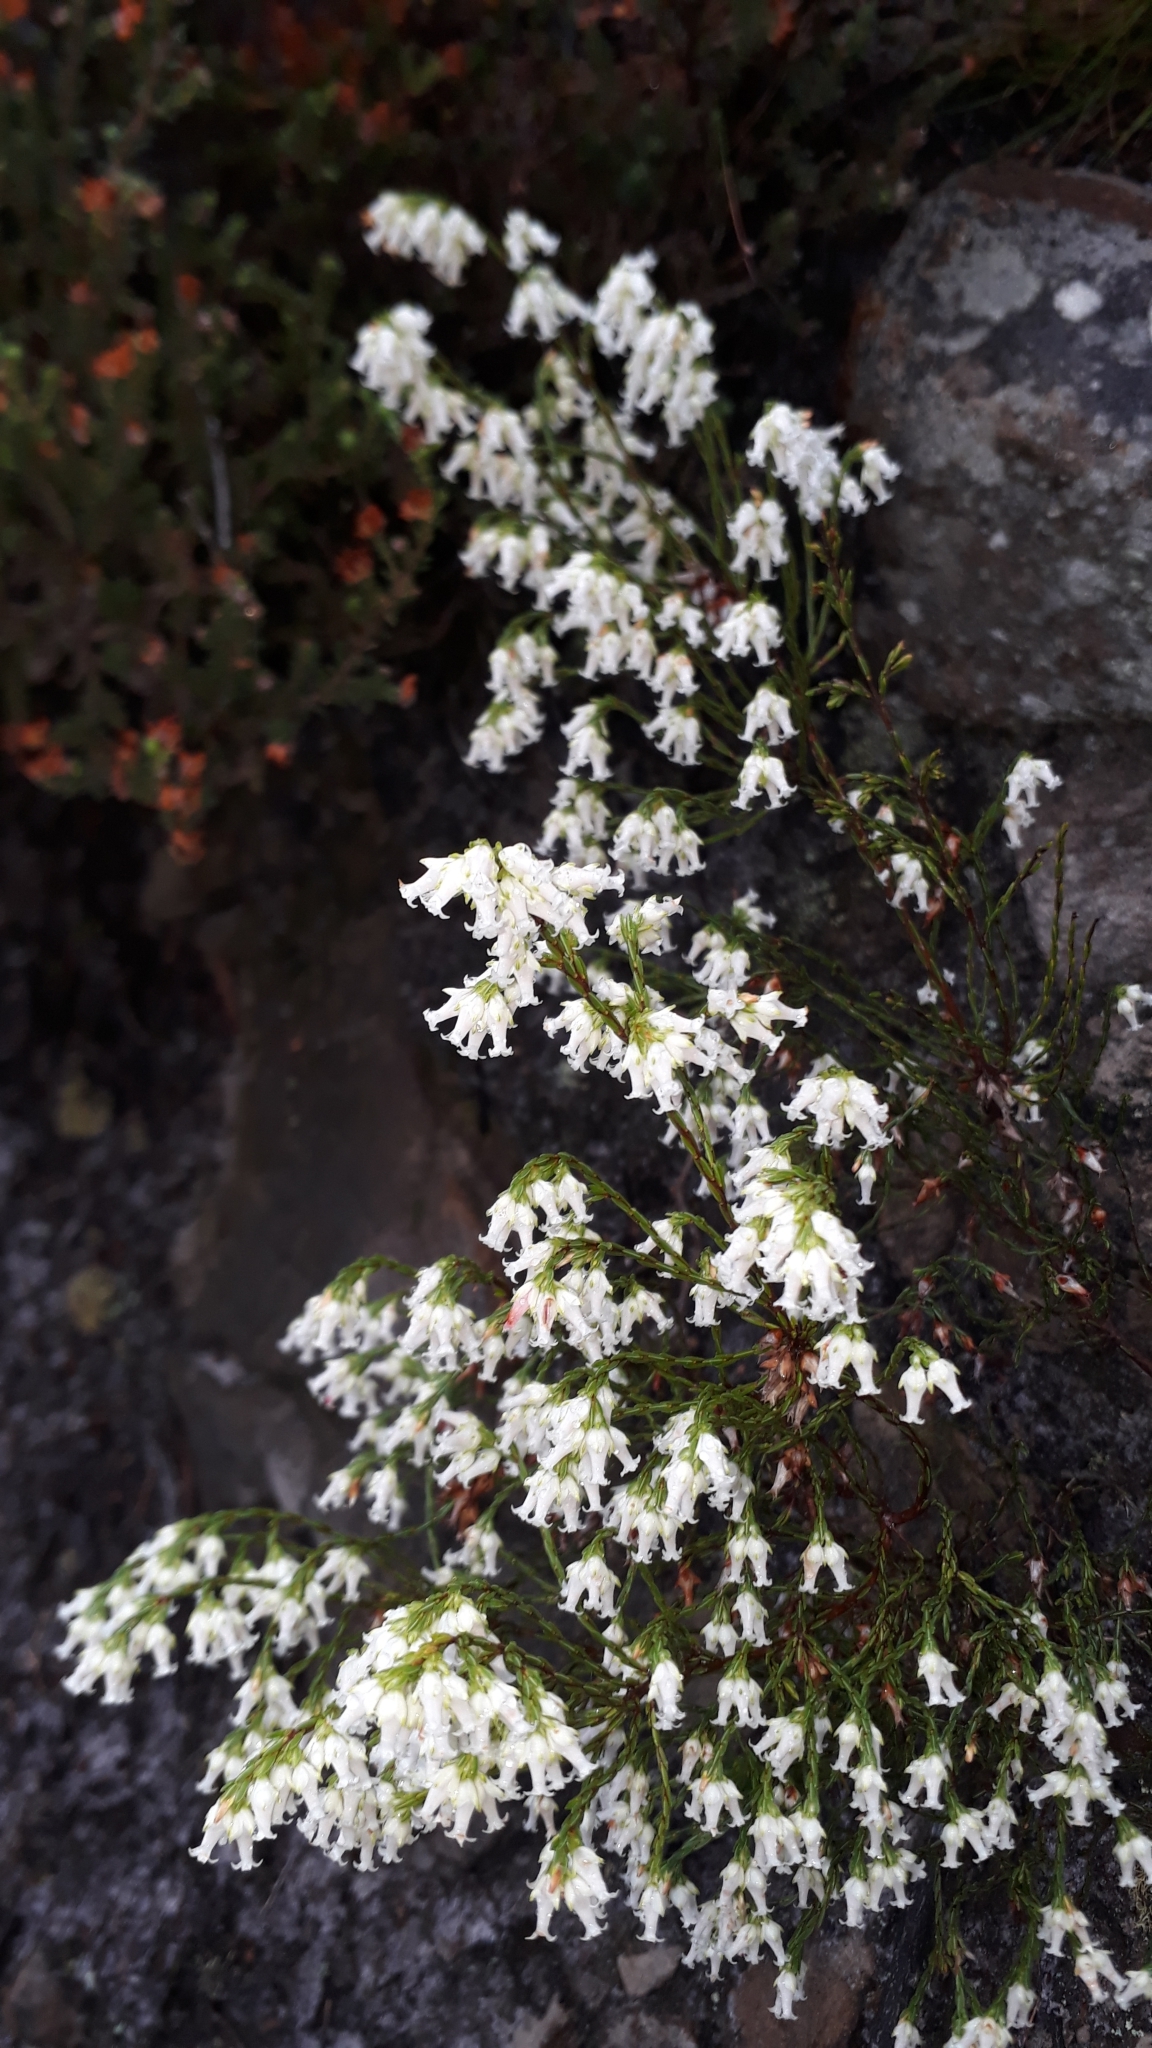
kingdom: Plantae
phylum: Tracheophyta
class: Magnoliopsida
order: Ericales
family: Ericaceae
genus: Erica
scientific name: Erica lutea
